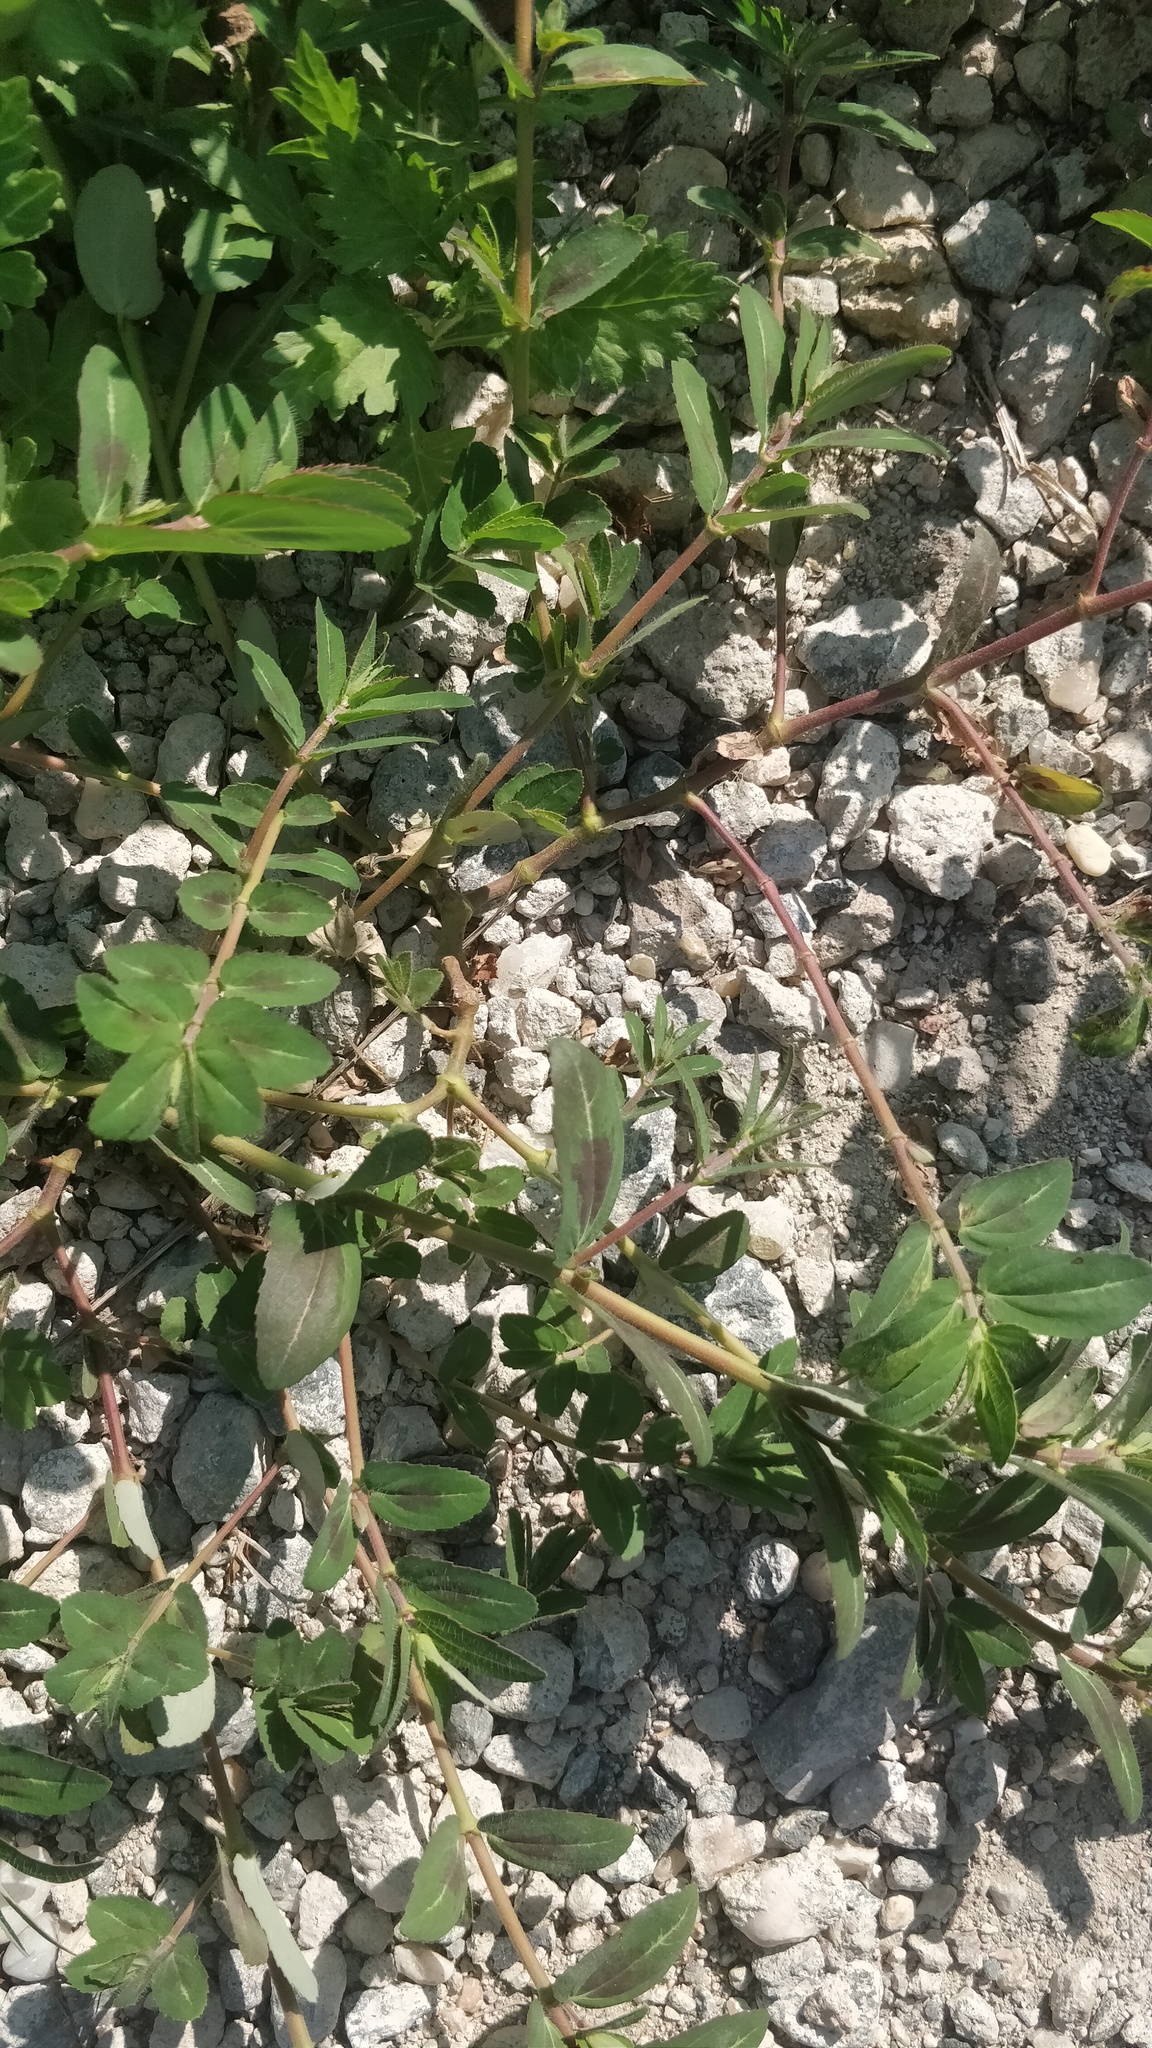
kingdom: Plantae
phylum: Tracheophyta
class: Magnoliopsida
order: Malpighiales
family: Euphorbiaceae
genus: Euphorbia
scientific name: Euphorbia nutans
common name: Eyebane
